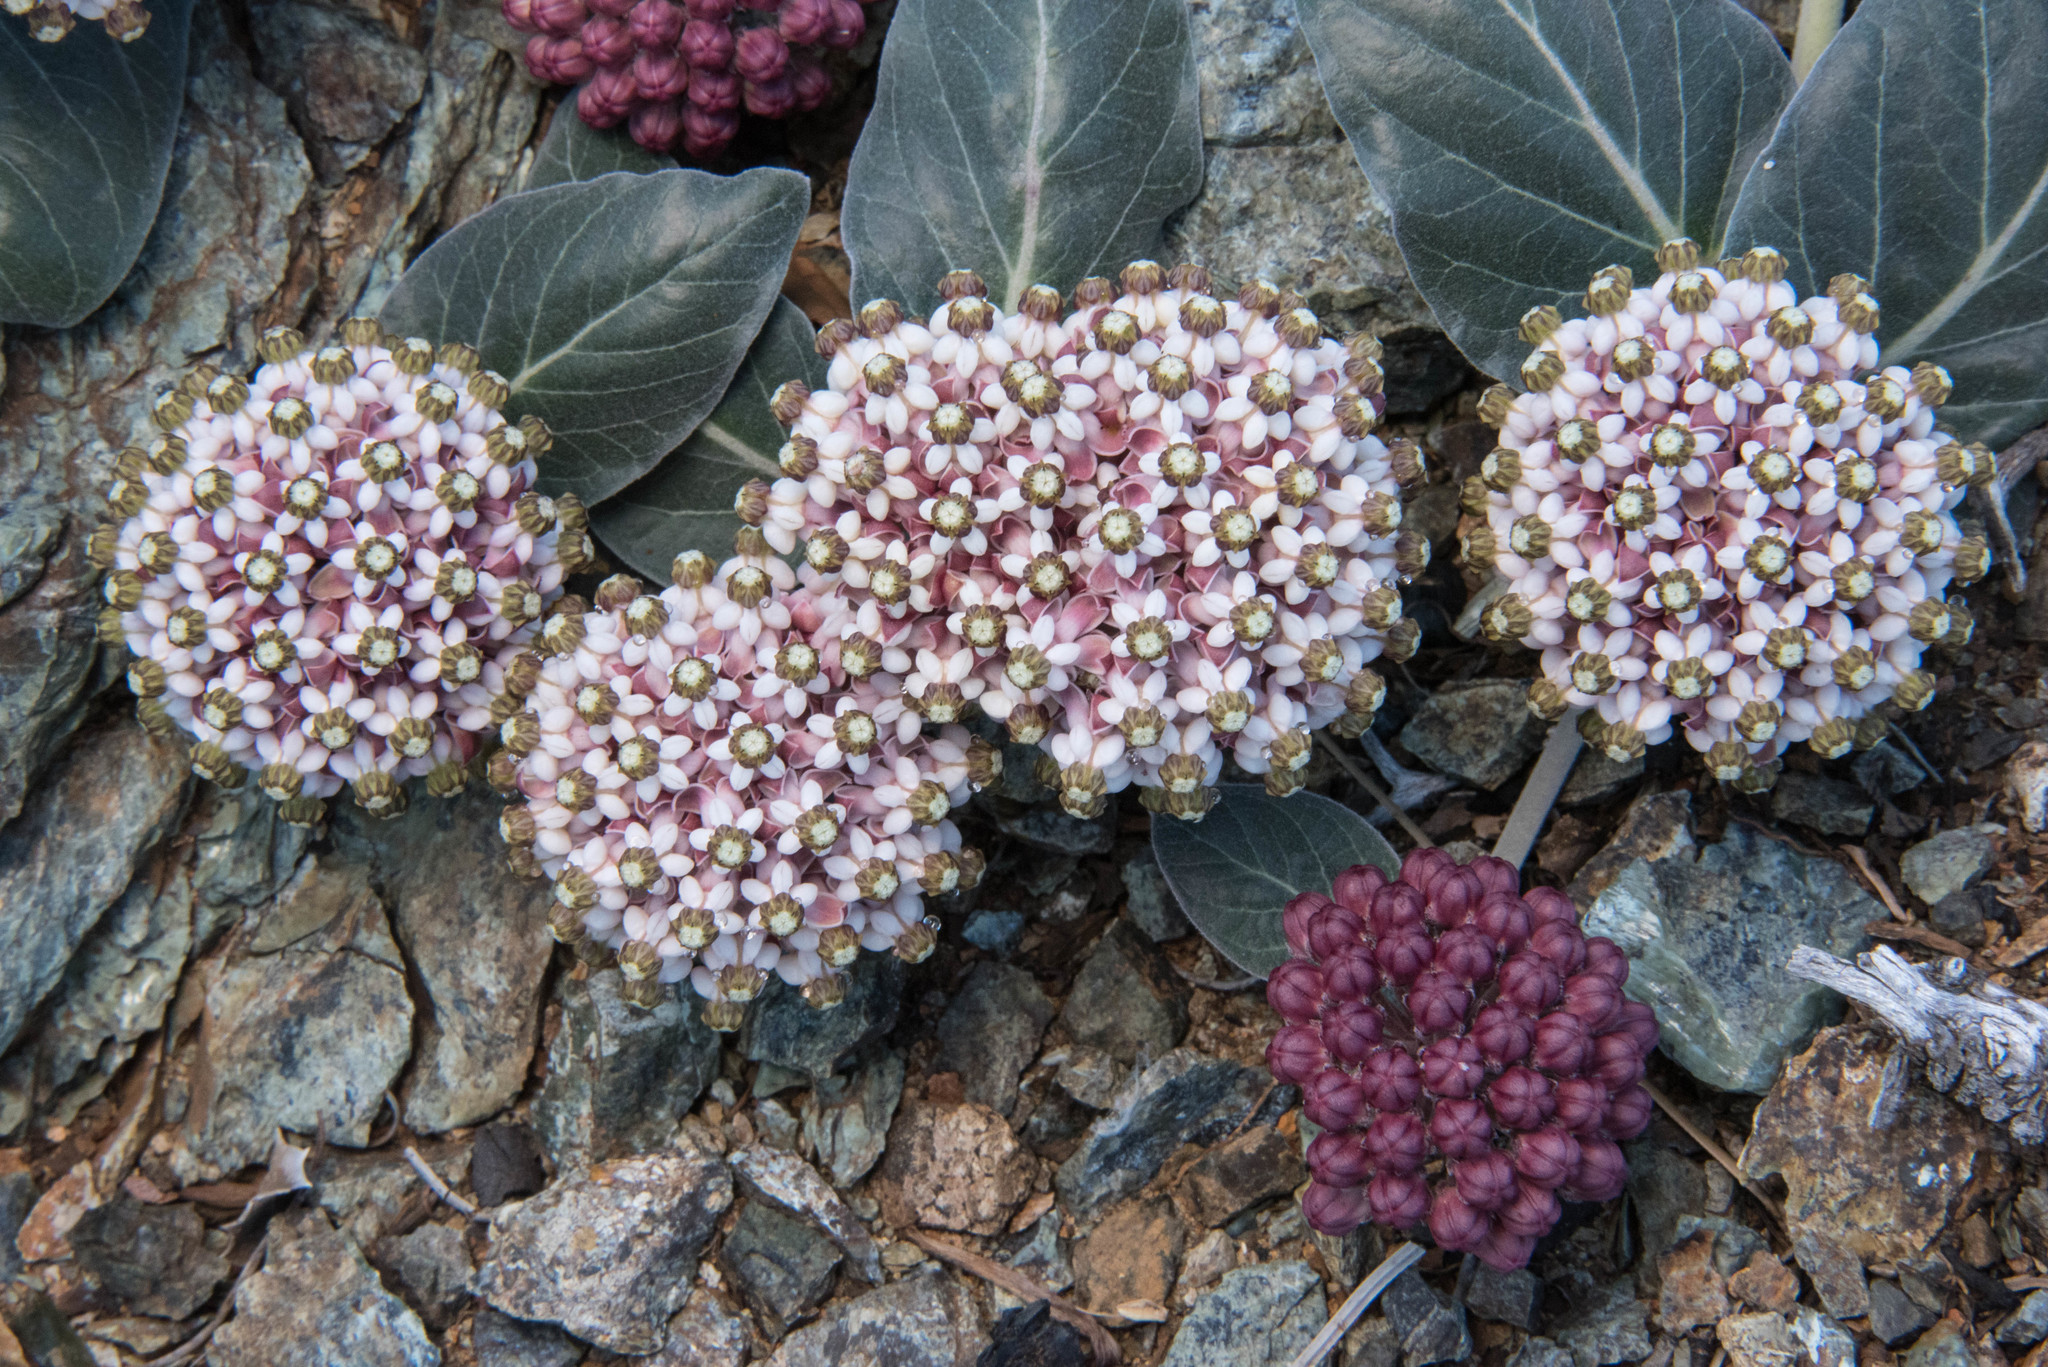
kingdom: Plantae
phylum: Tracheophyta
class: Magnoliopsida
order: Gentianales
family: Apocynaceae
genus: Asclepias
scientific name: Asclepias solanoana
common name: Serpentine milkweed
